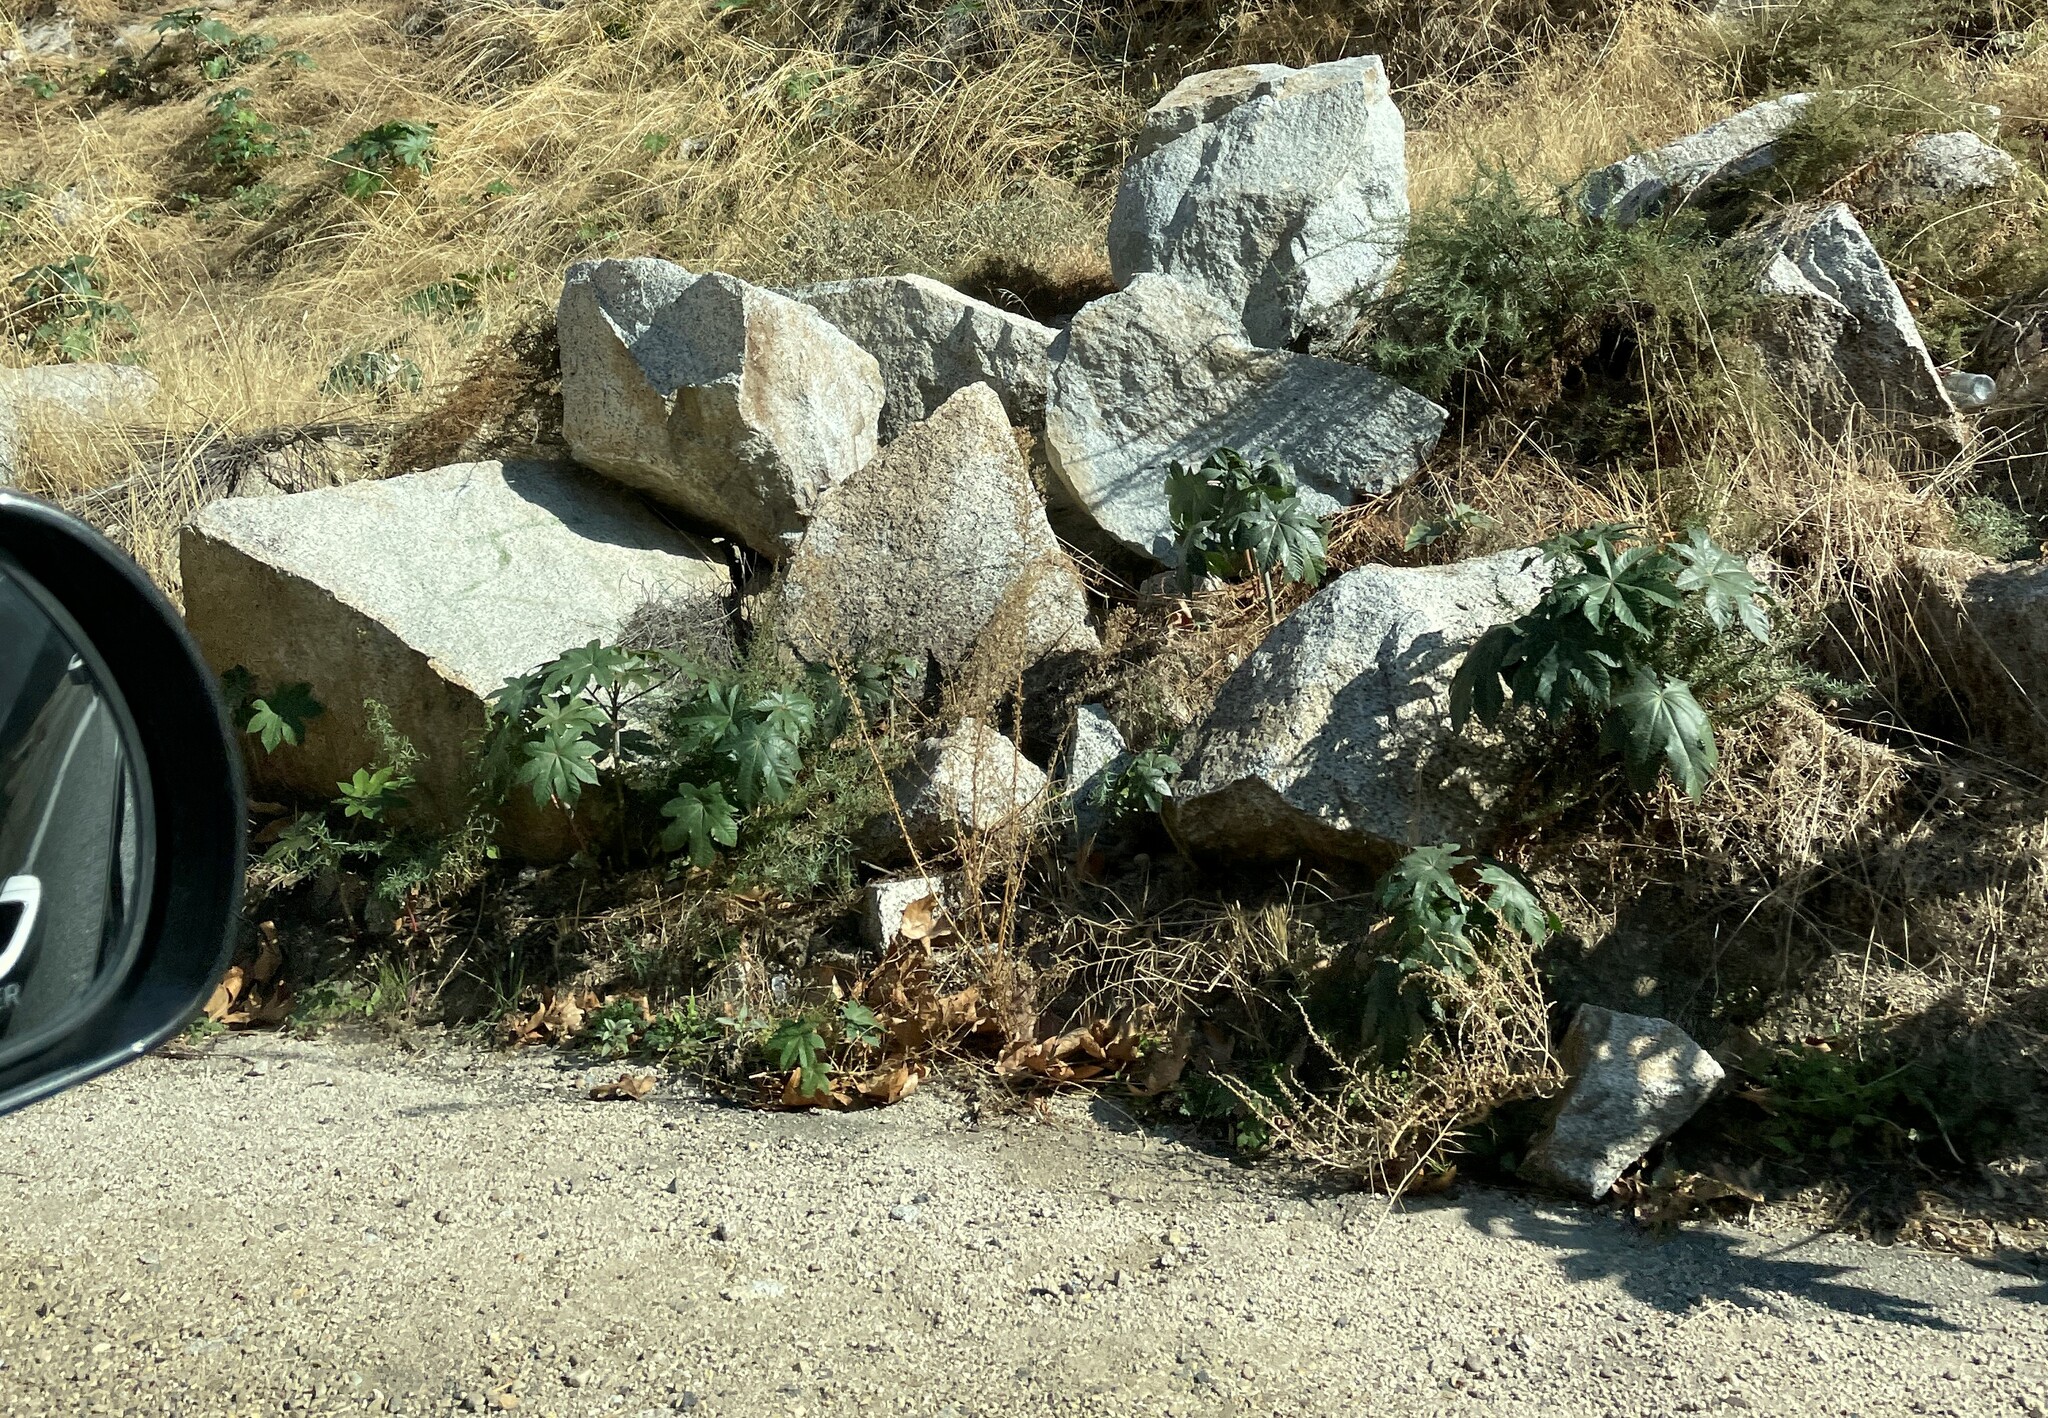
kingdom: Plantae
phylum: Tracheophyta
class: Magnoliopsida
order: Malpighiales
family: Euphorbiaceae
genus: Ricinus
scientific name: Ricinus communis
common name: Castor-oil-plant
